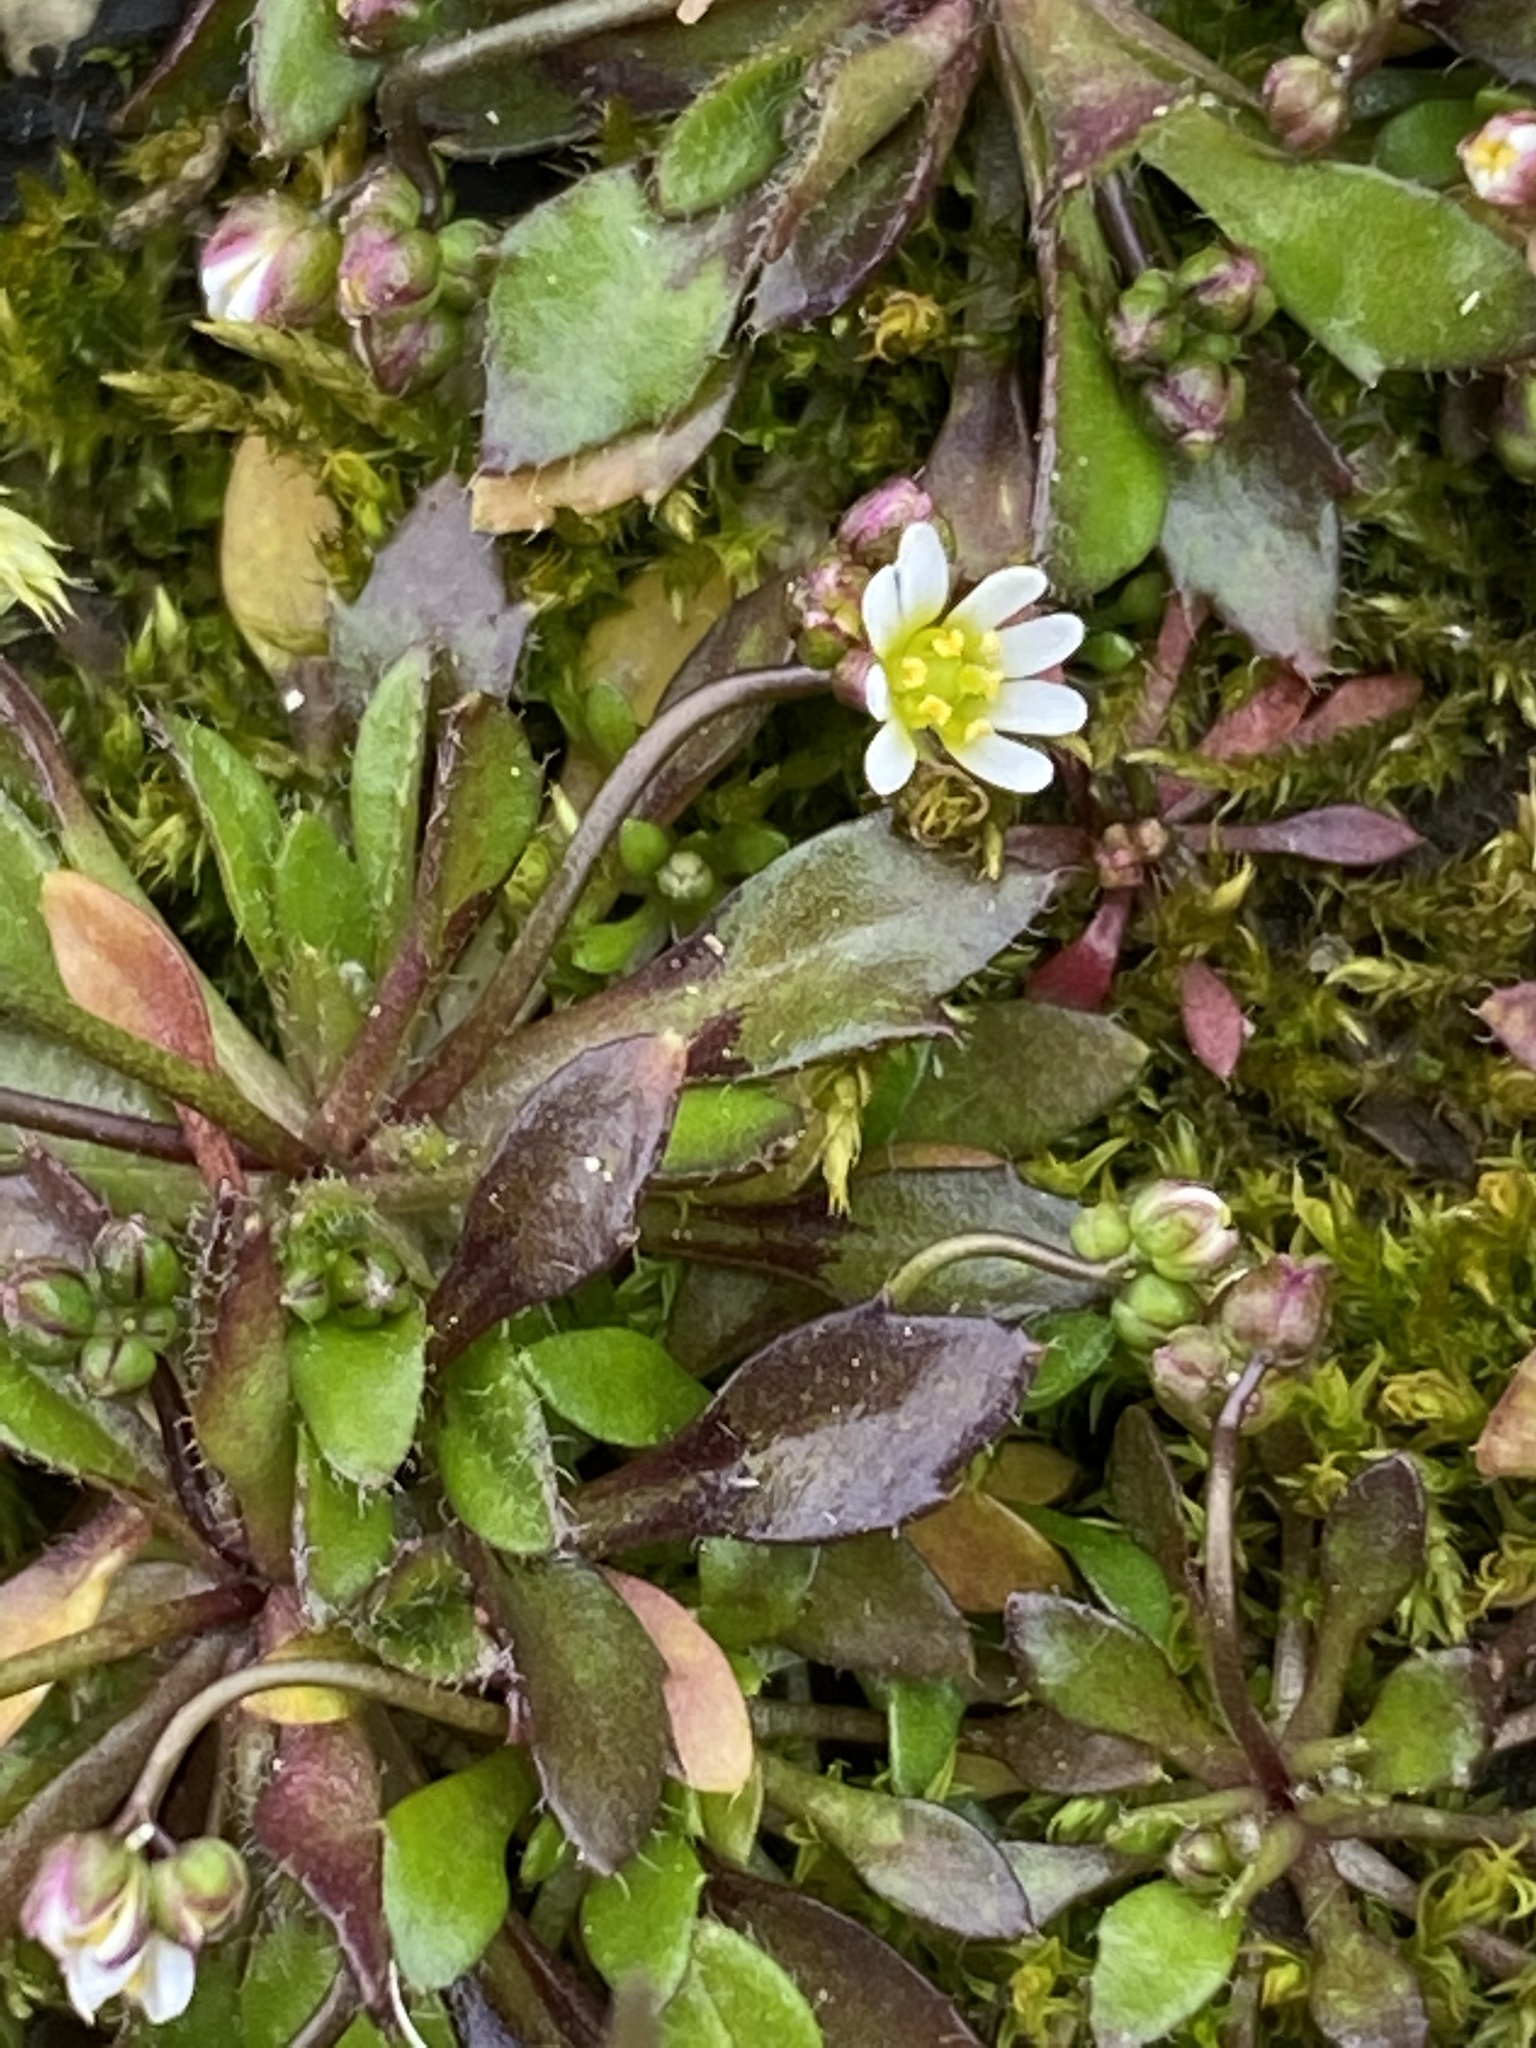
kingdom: Plantae
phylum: Tracheophyta
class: Magnoliopsida
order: Brassicales
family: Brassicaceae
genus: Draba
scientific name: Draba verna
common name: Spring draba
